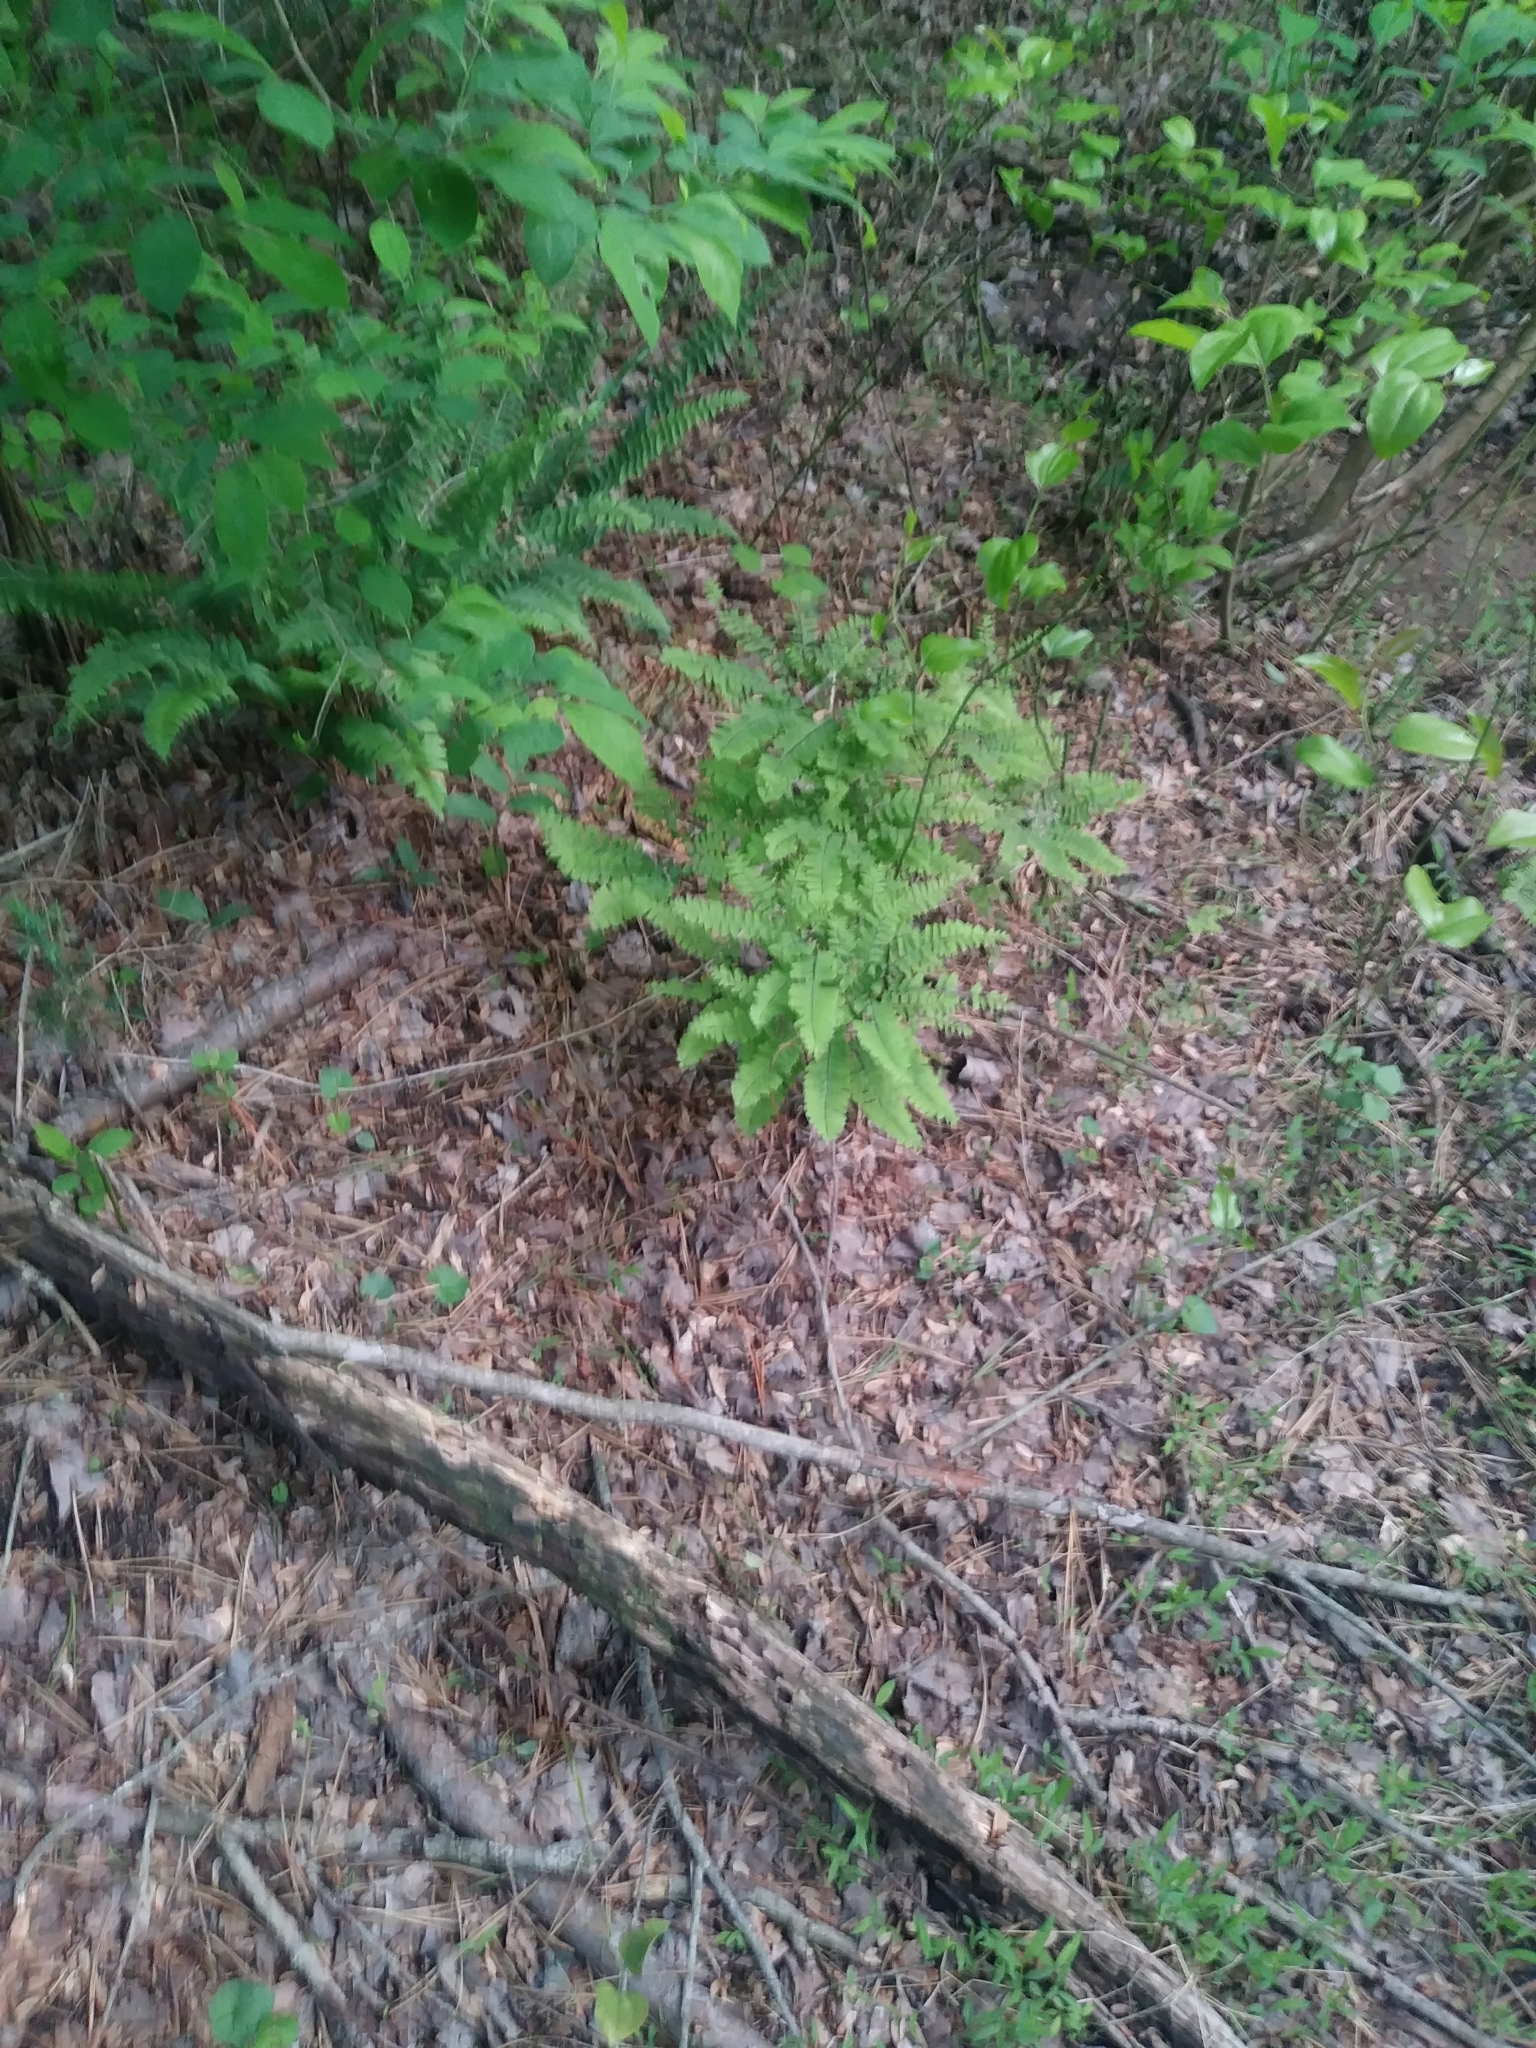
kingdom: Plantae
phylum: Tracheophyta
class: Polypodiopsida
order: Polypodiales
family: Pteridaceae
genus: Adiantum
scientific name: Adiantum pedatum
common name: Five-finger fern
